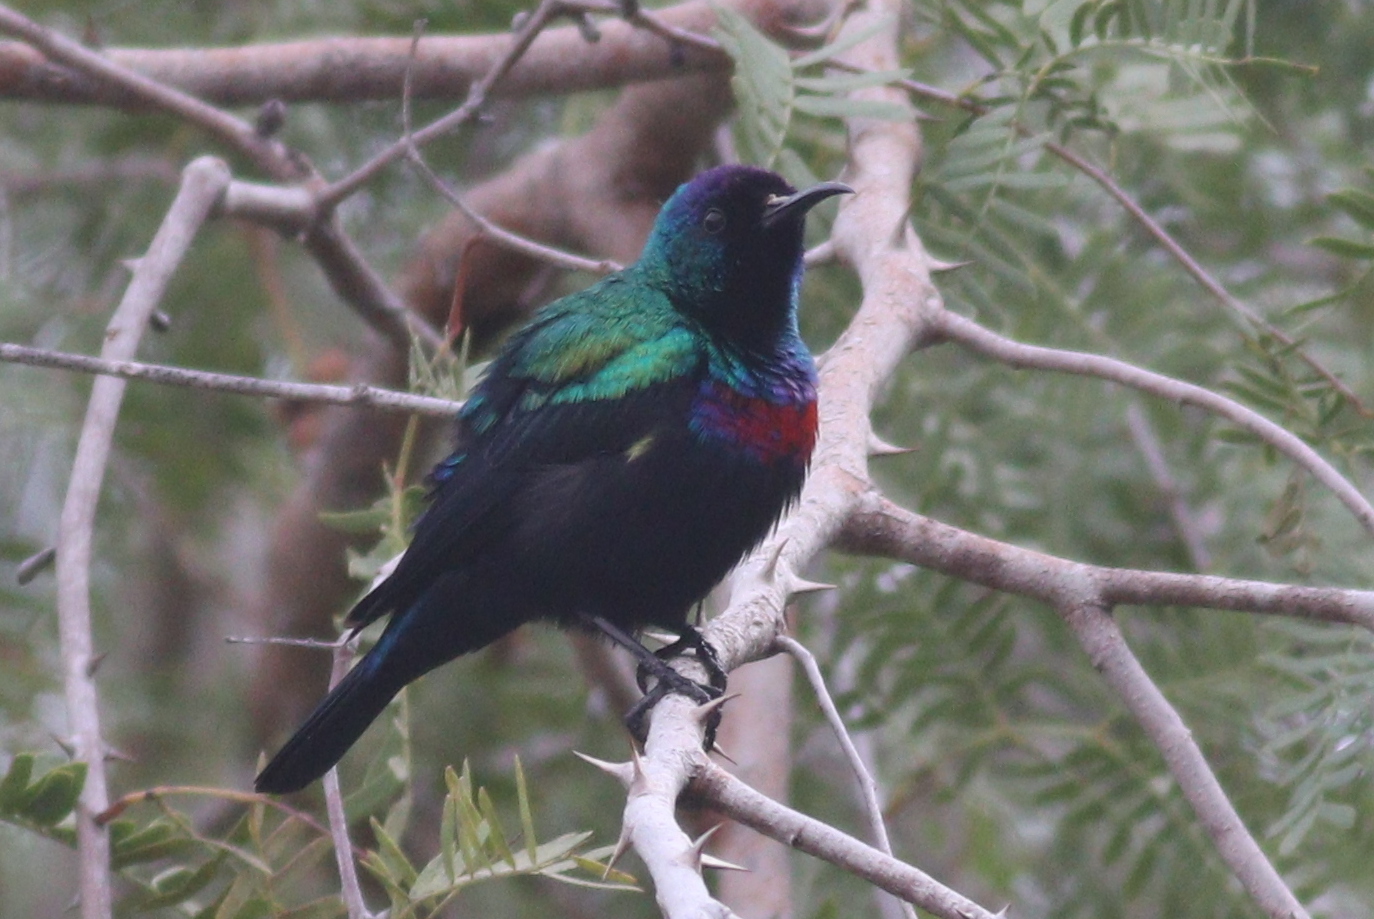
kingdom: Animalia
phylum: Chordata
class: Aves
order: Passeriformes
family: Nectariniidae
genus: Cinnyris
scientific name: Cinnyris habessinicus
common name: Shining sunbird
